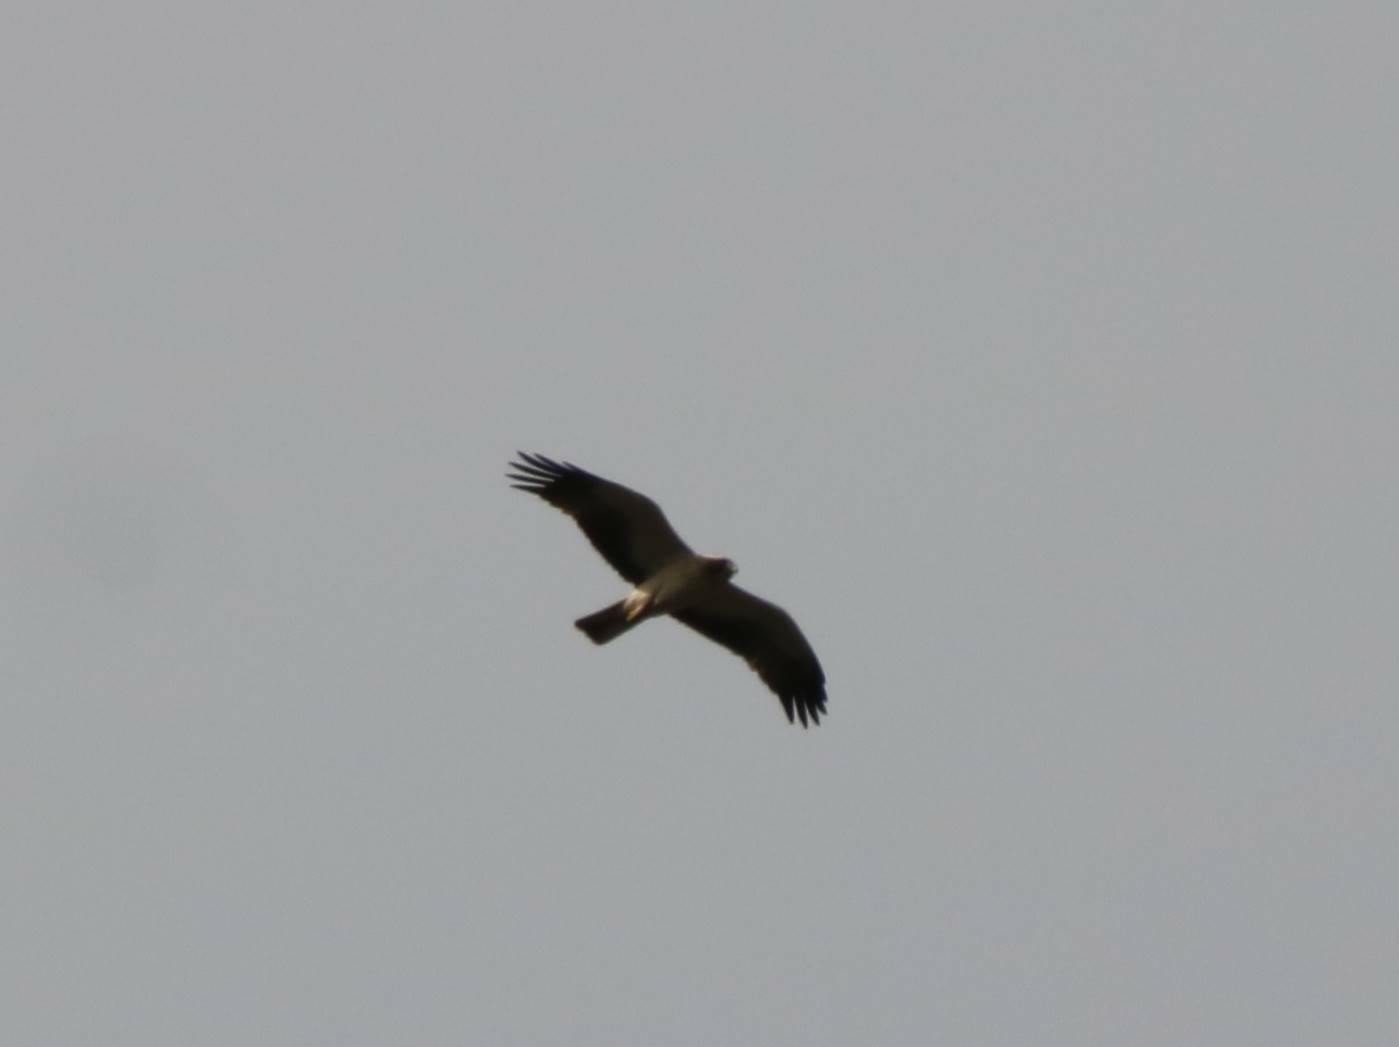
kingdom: Animalia
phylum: Chordata
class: Aves
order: Accipitriformes
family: Accipitridae
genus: Hieraaetus
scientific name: Hieraaetus pennatus
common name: Booted eagle
